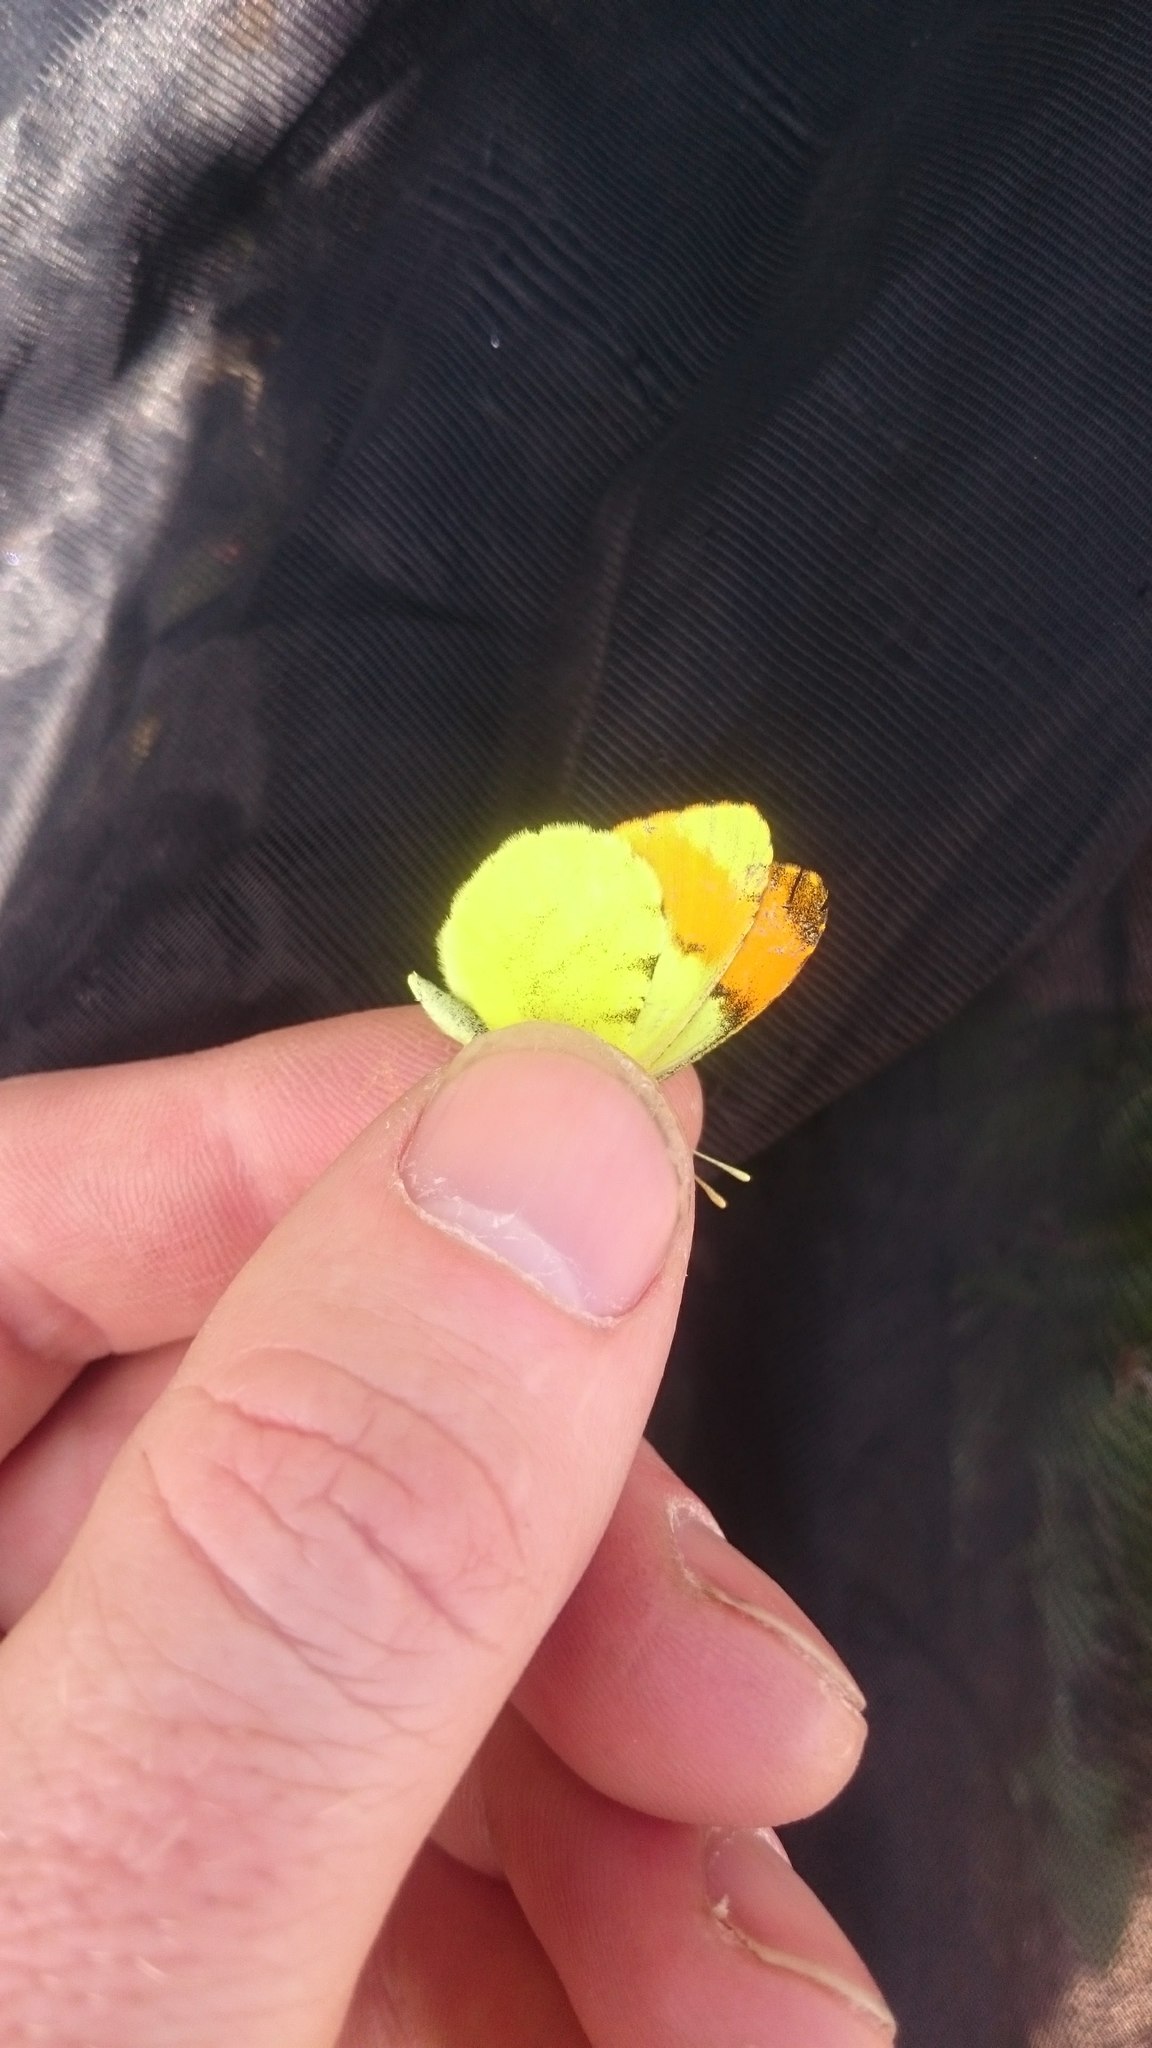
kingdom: Animalia
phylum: Arthropoda
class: Insecta
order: Lepidoptera
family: Pieridae
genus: Anthocharis
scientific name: Anthocharis belia
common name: Moroccan orange tip
